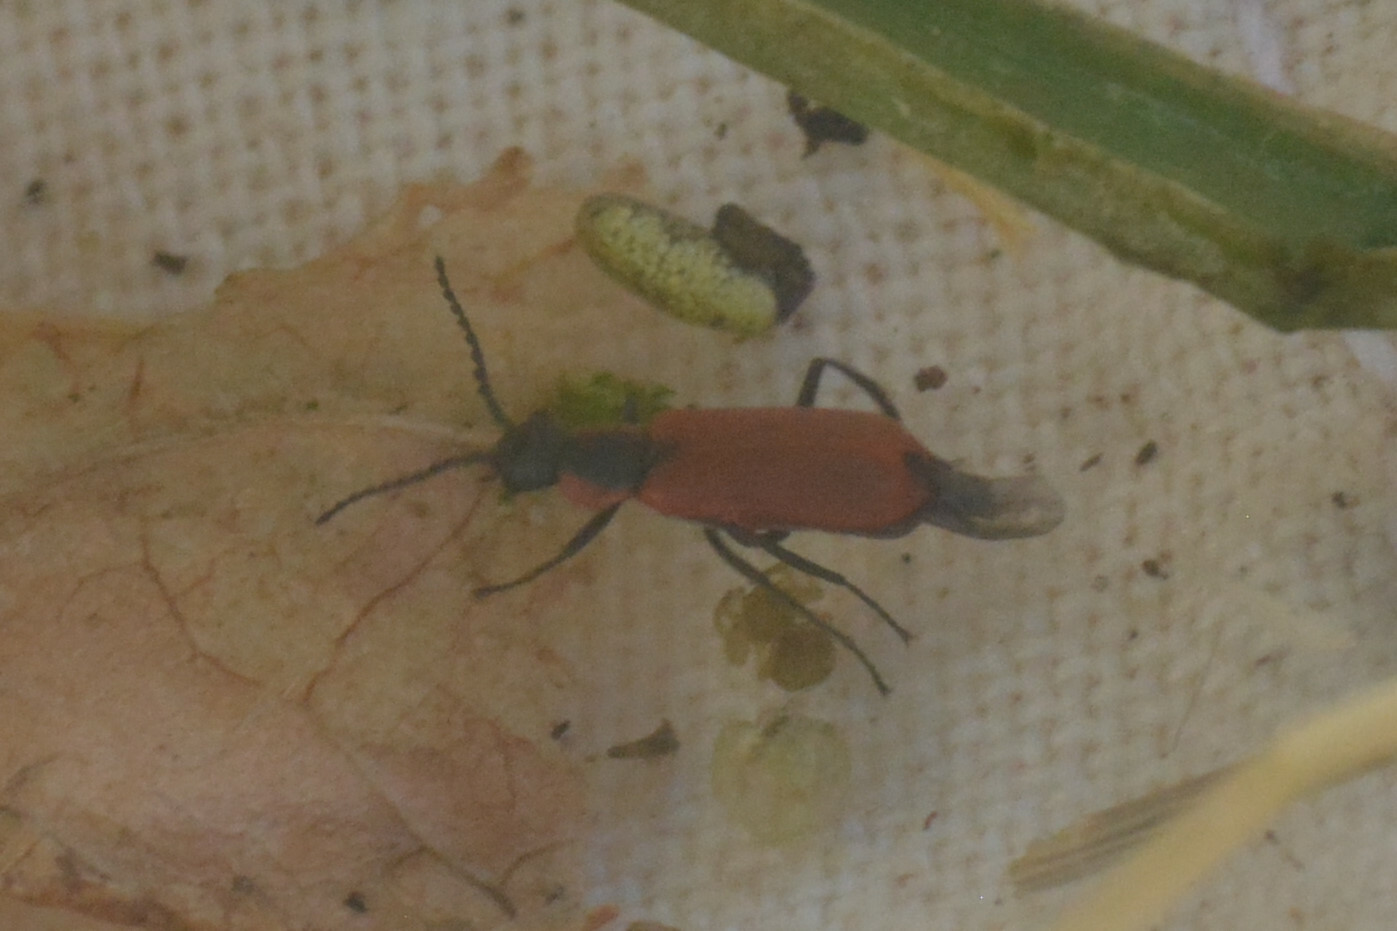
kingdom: Animalia
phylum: Arthropoda
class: Insecta
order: Coleoptera
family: Melyridae
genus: Anthocomus
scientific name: Anthocomus rufus
